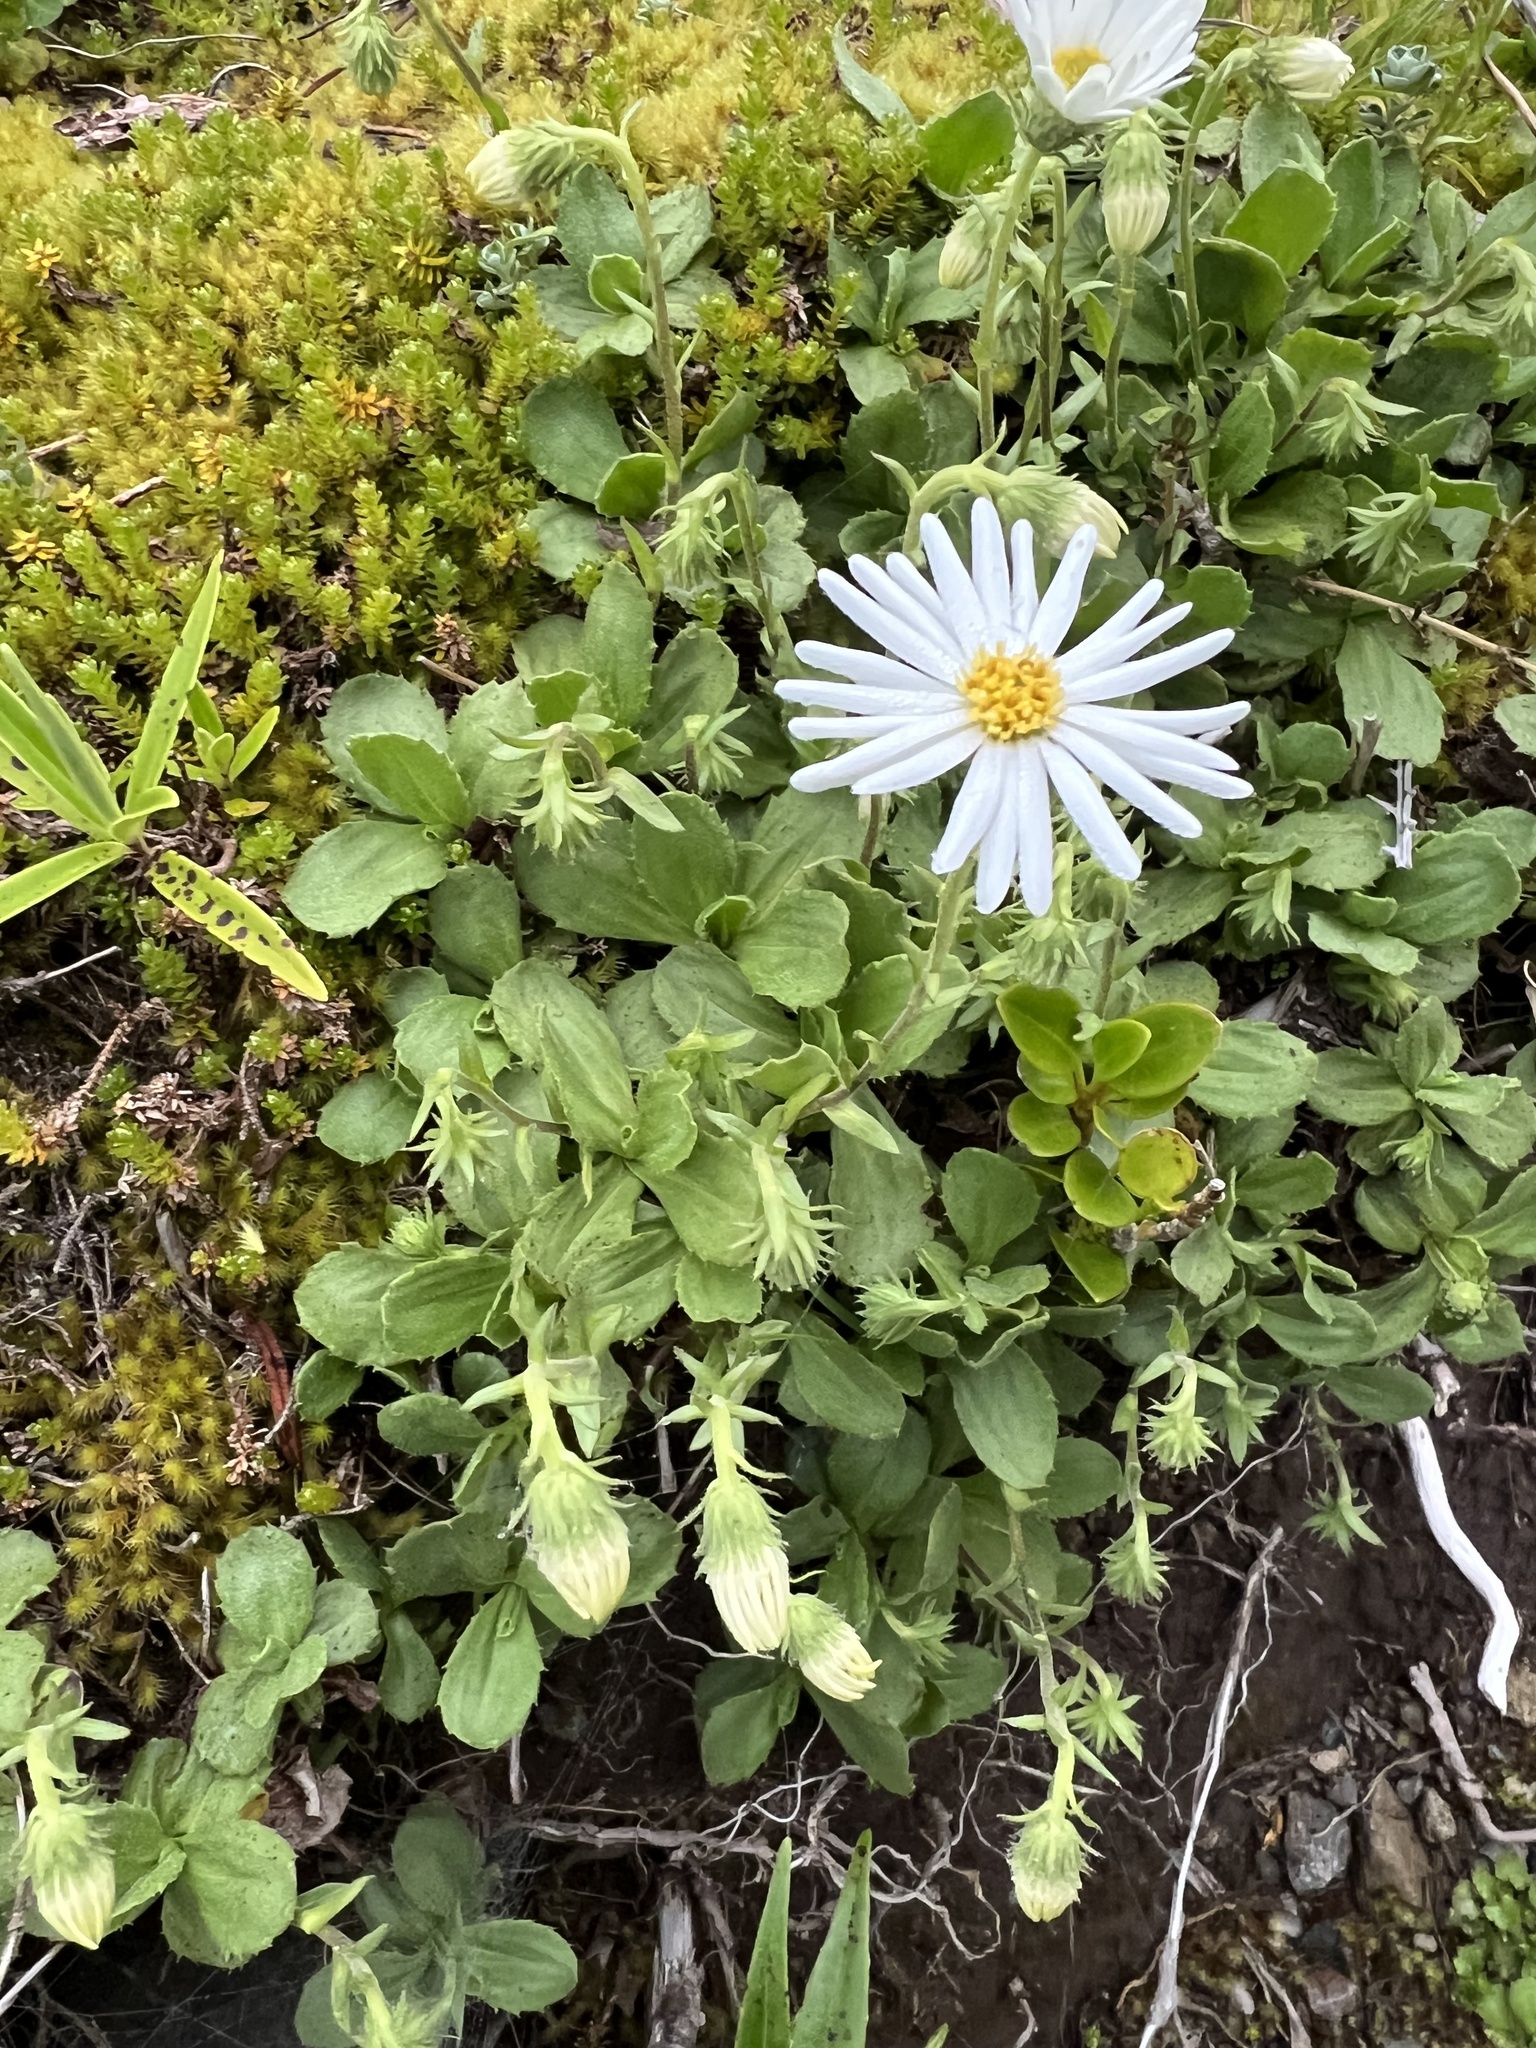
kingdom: Plantae
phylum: Tracheophyta
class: Magnoliopsida
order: Asterales
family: Asteraceae
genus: Celmisia
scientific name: Celmisia glandulosa
